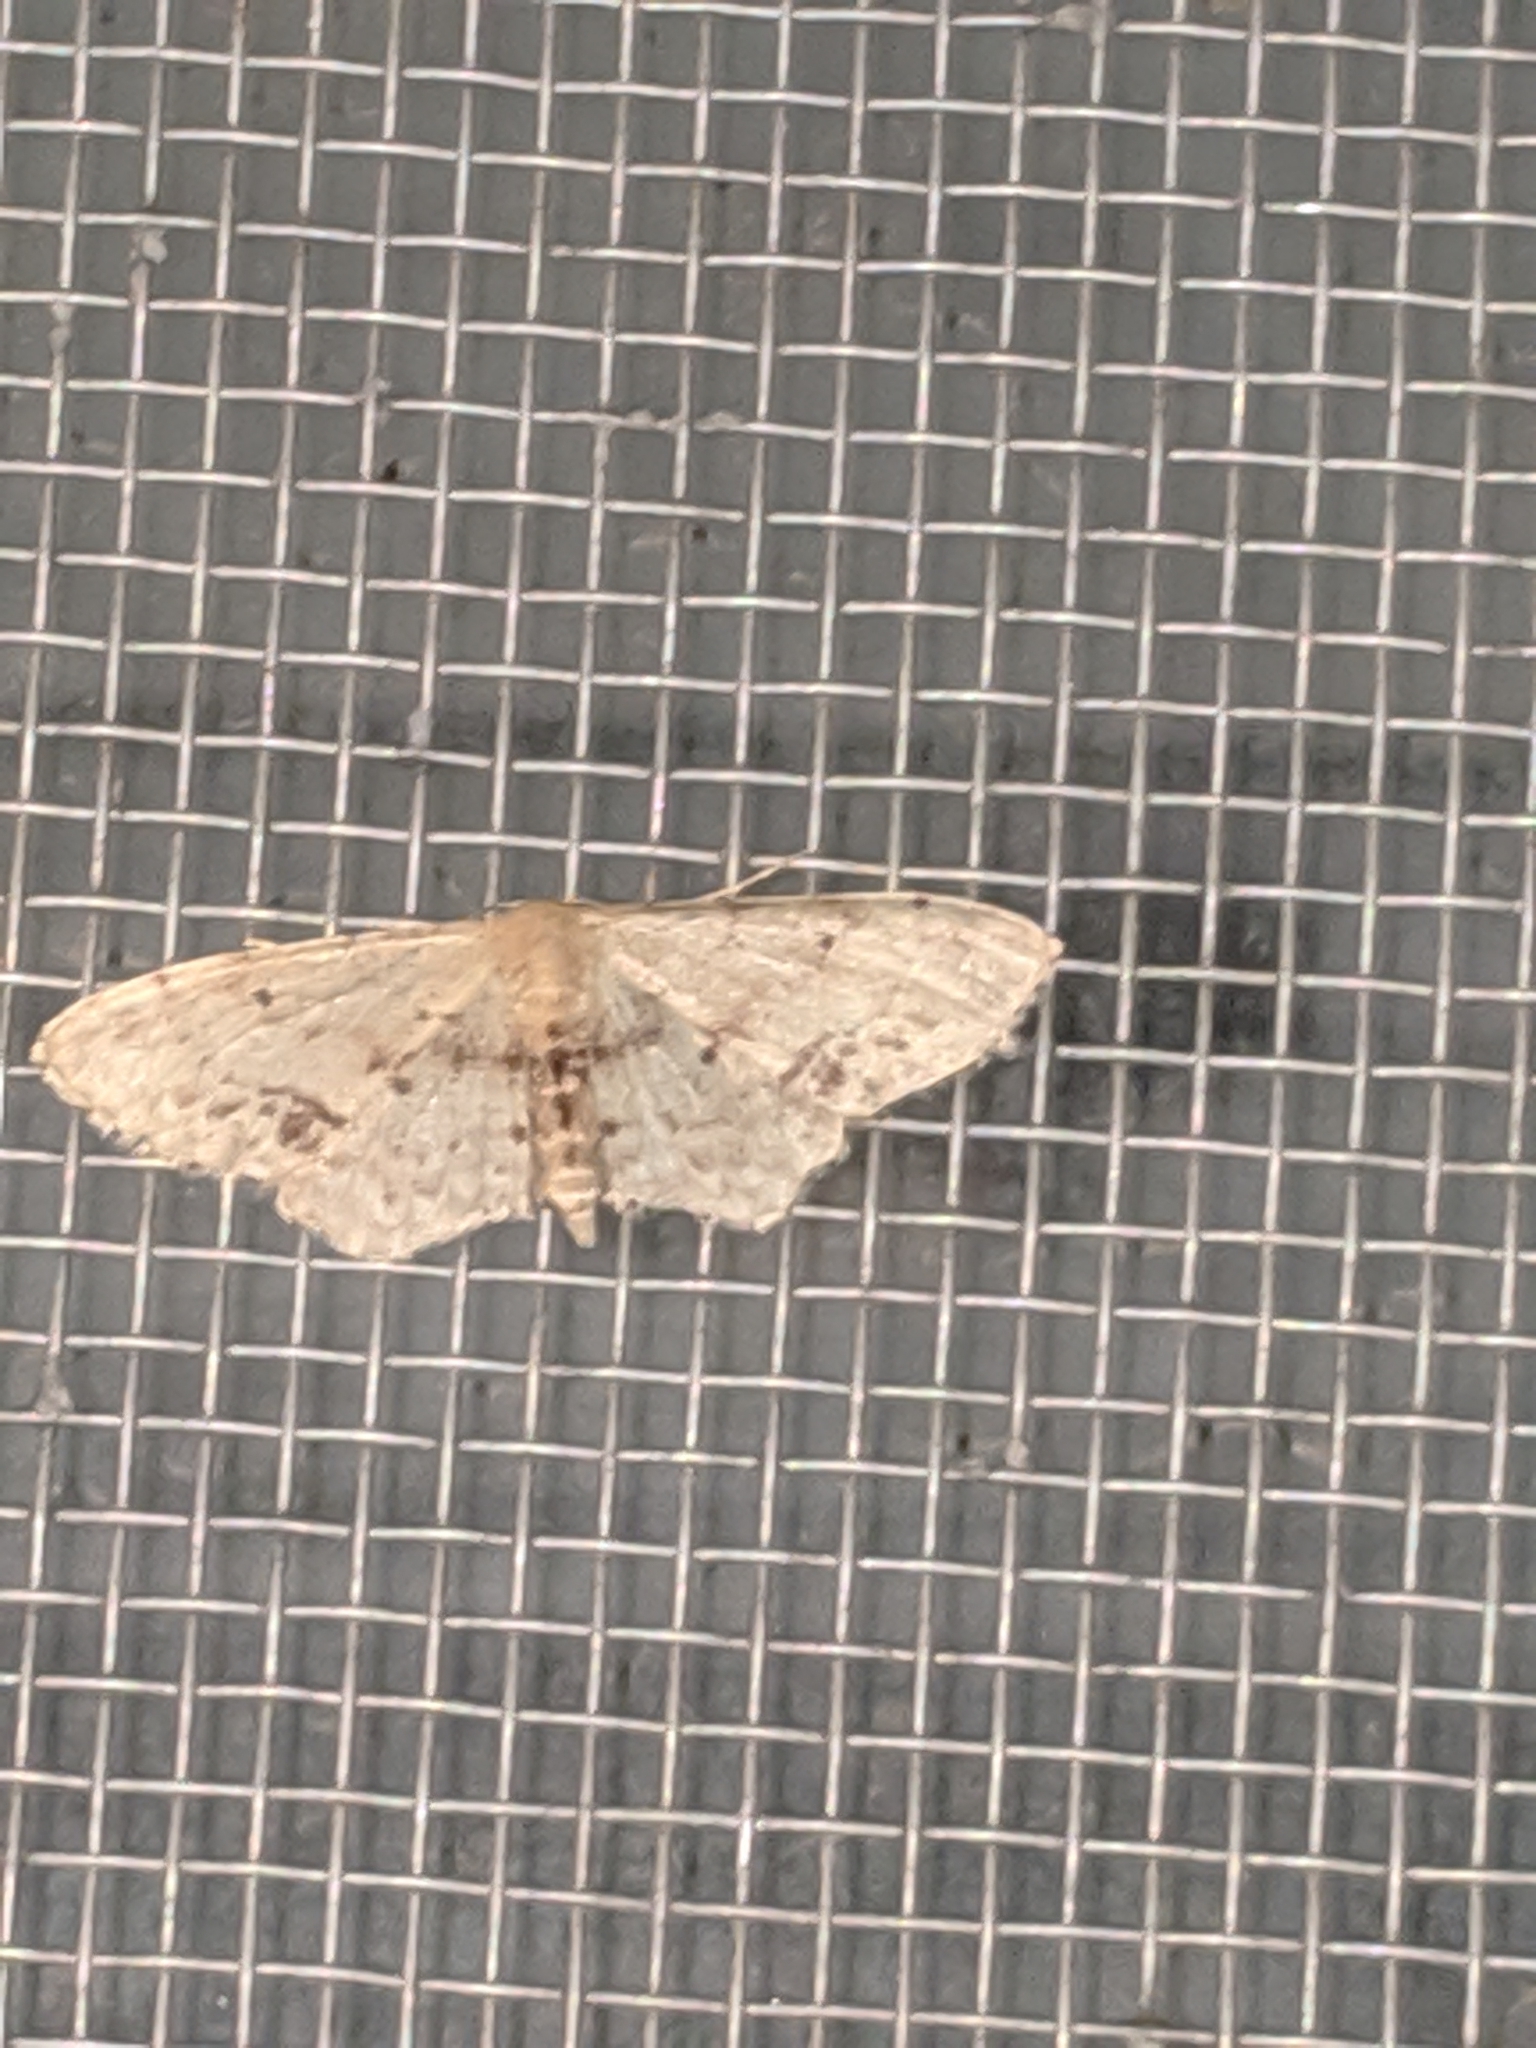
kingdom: Animalia
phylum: Arthropoda
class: Insecta
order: Lepidoptera
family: Geometridae
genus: Idaea
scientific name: Idaea dimidiata
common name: Single-dotted wave
